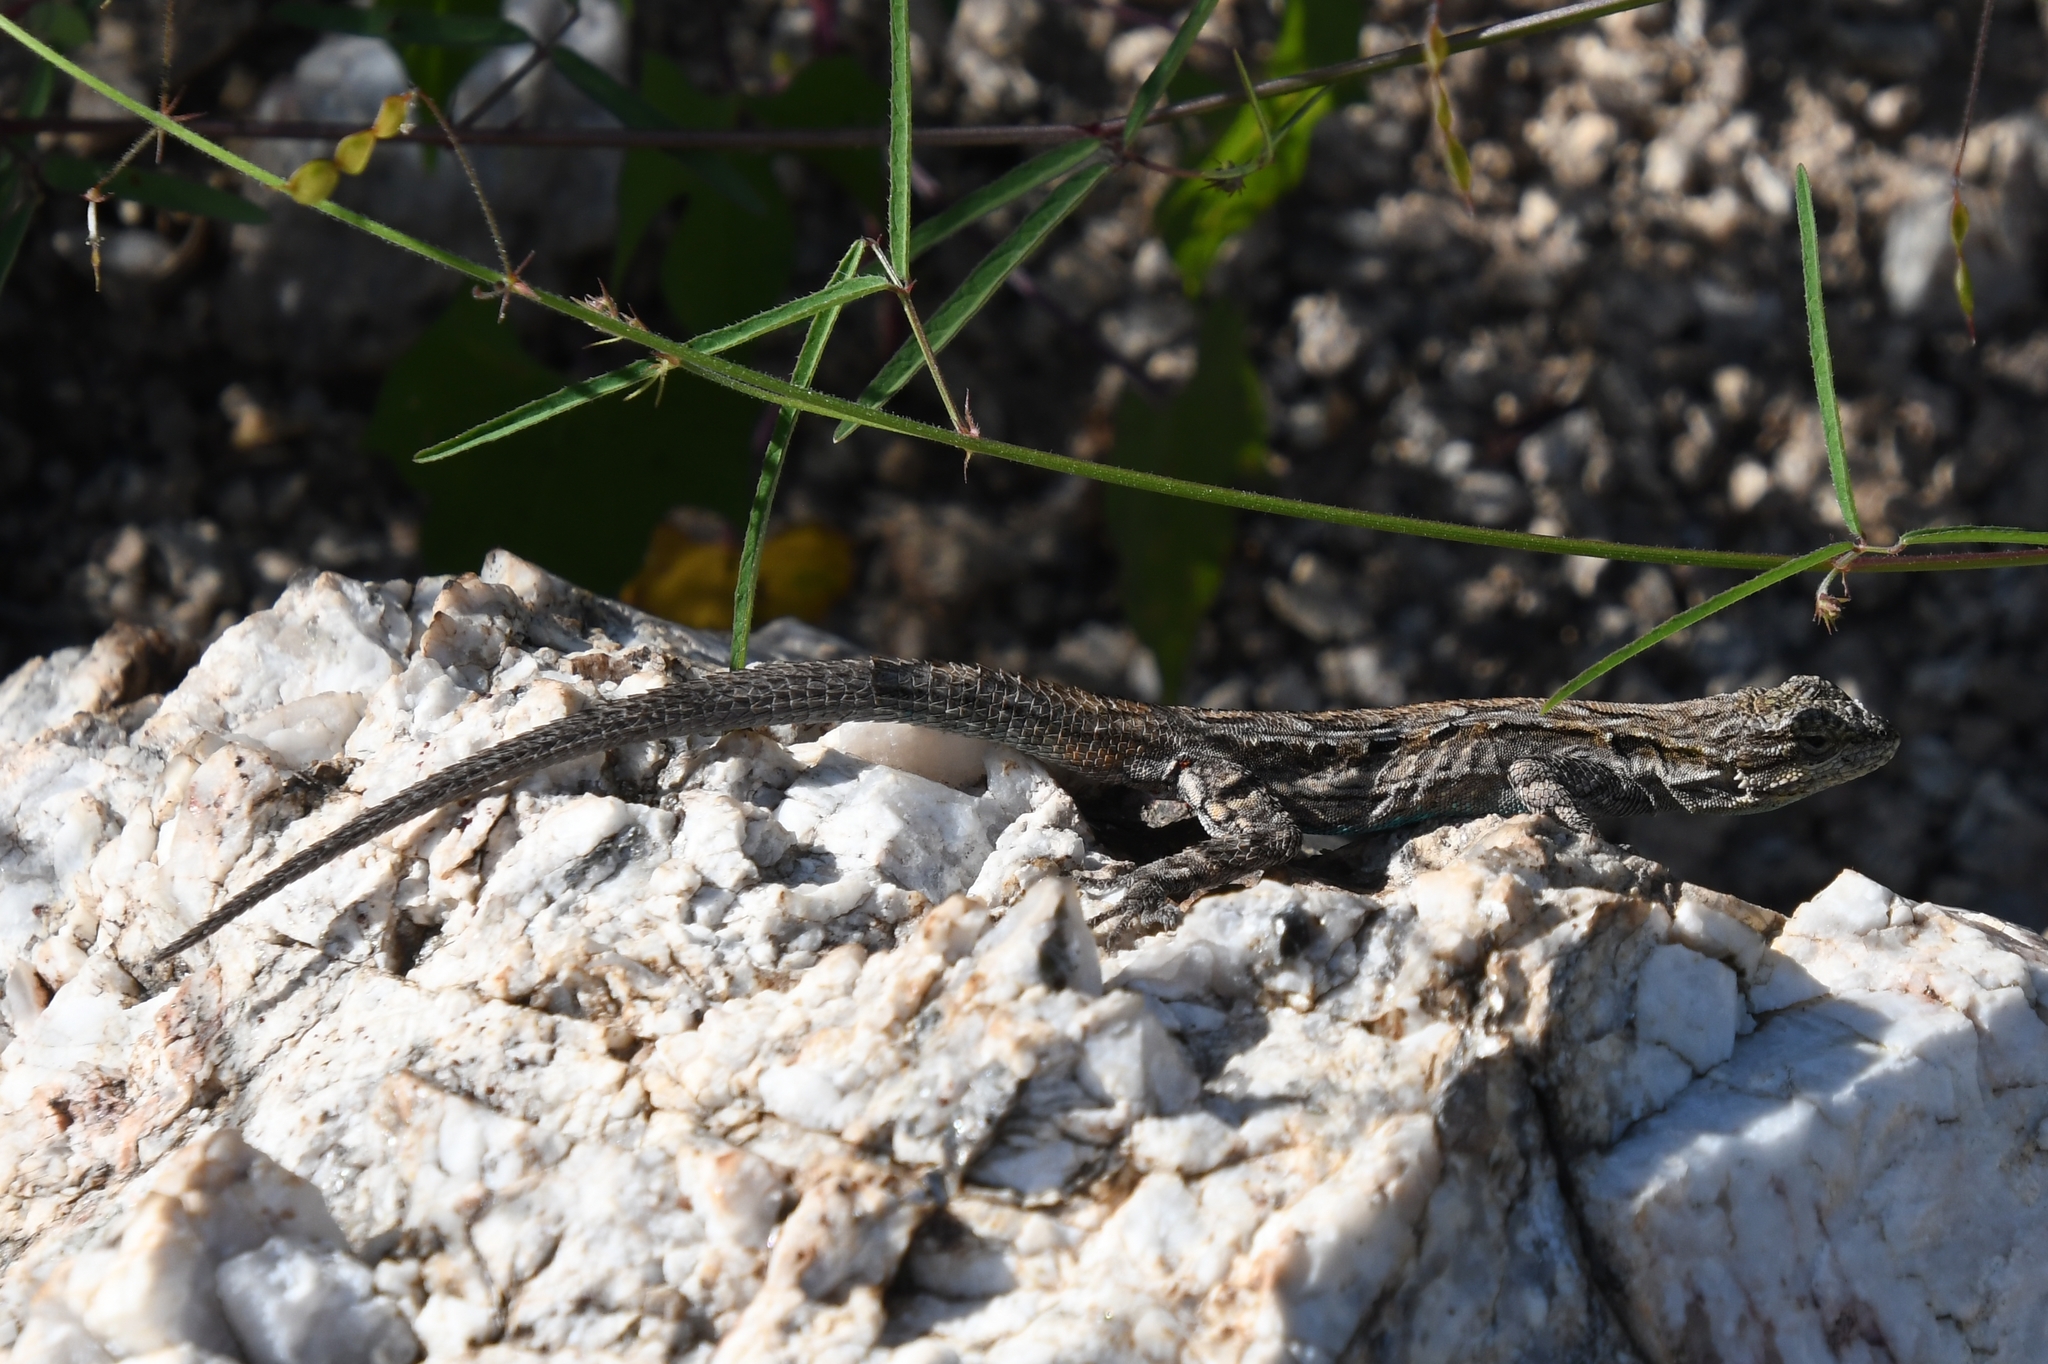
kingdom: Animalia
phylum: Chordata
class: Squamata
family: Phrynosomatidae
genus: Urosaurus
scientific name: Urosaurus ornatus
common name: Ornate tree lizard
